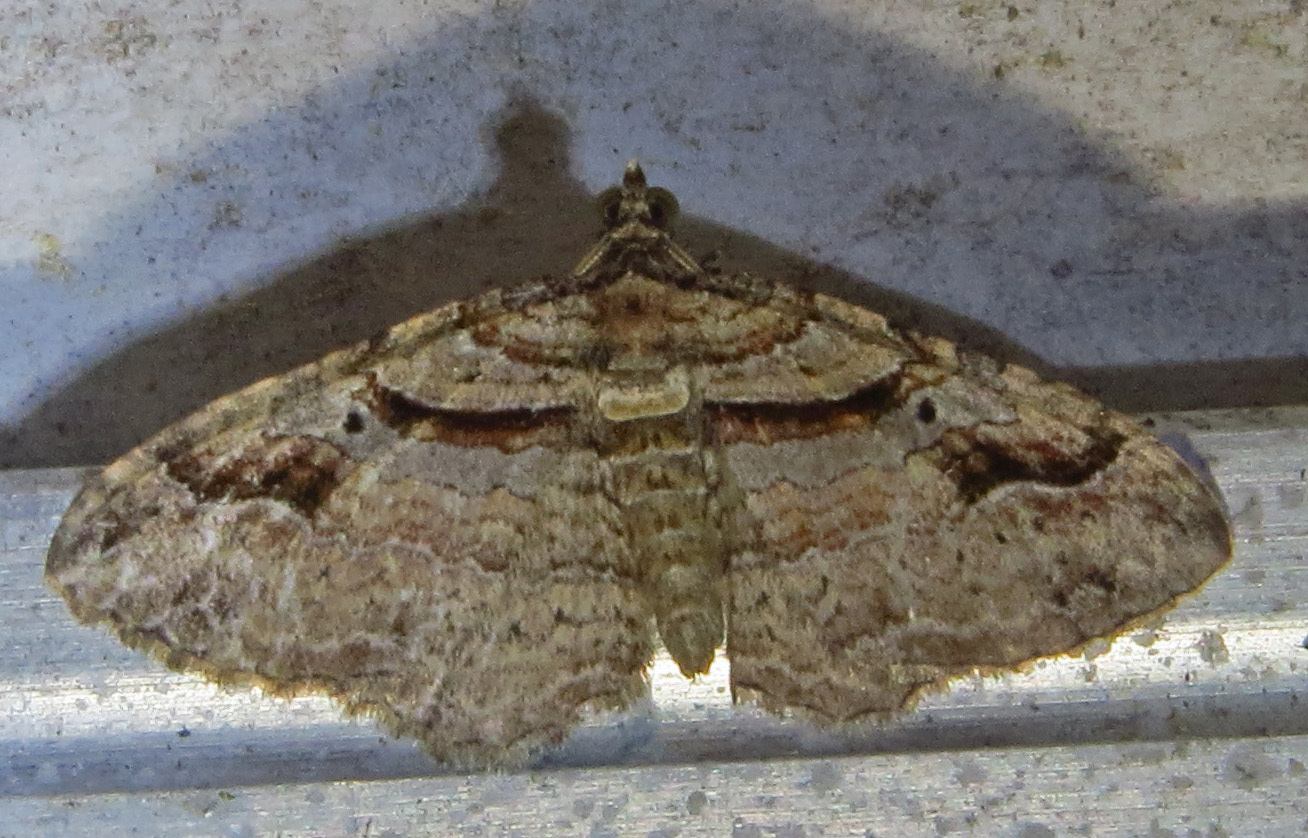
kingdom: Animalia
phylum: Arthropoda
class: Insecta
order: Lepidoptera
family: Geometridae
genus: Costaconvexa
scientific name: Costaconvexa centrostrigaria
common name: Bent-line carpet
